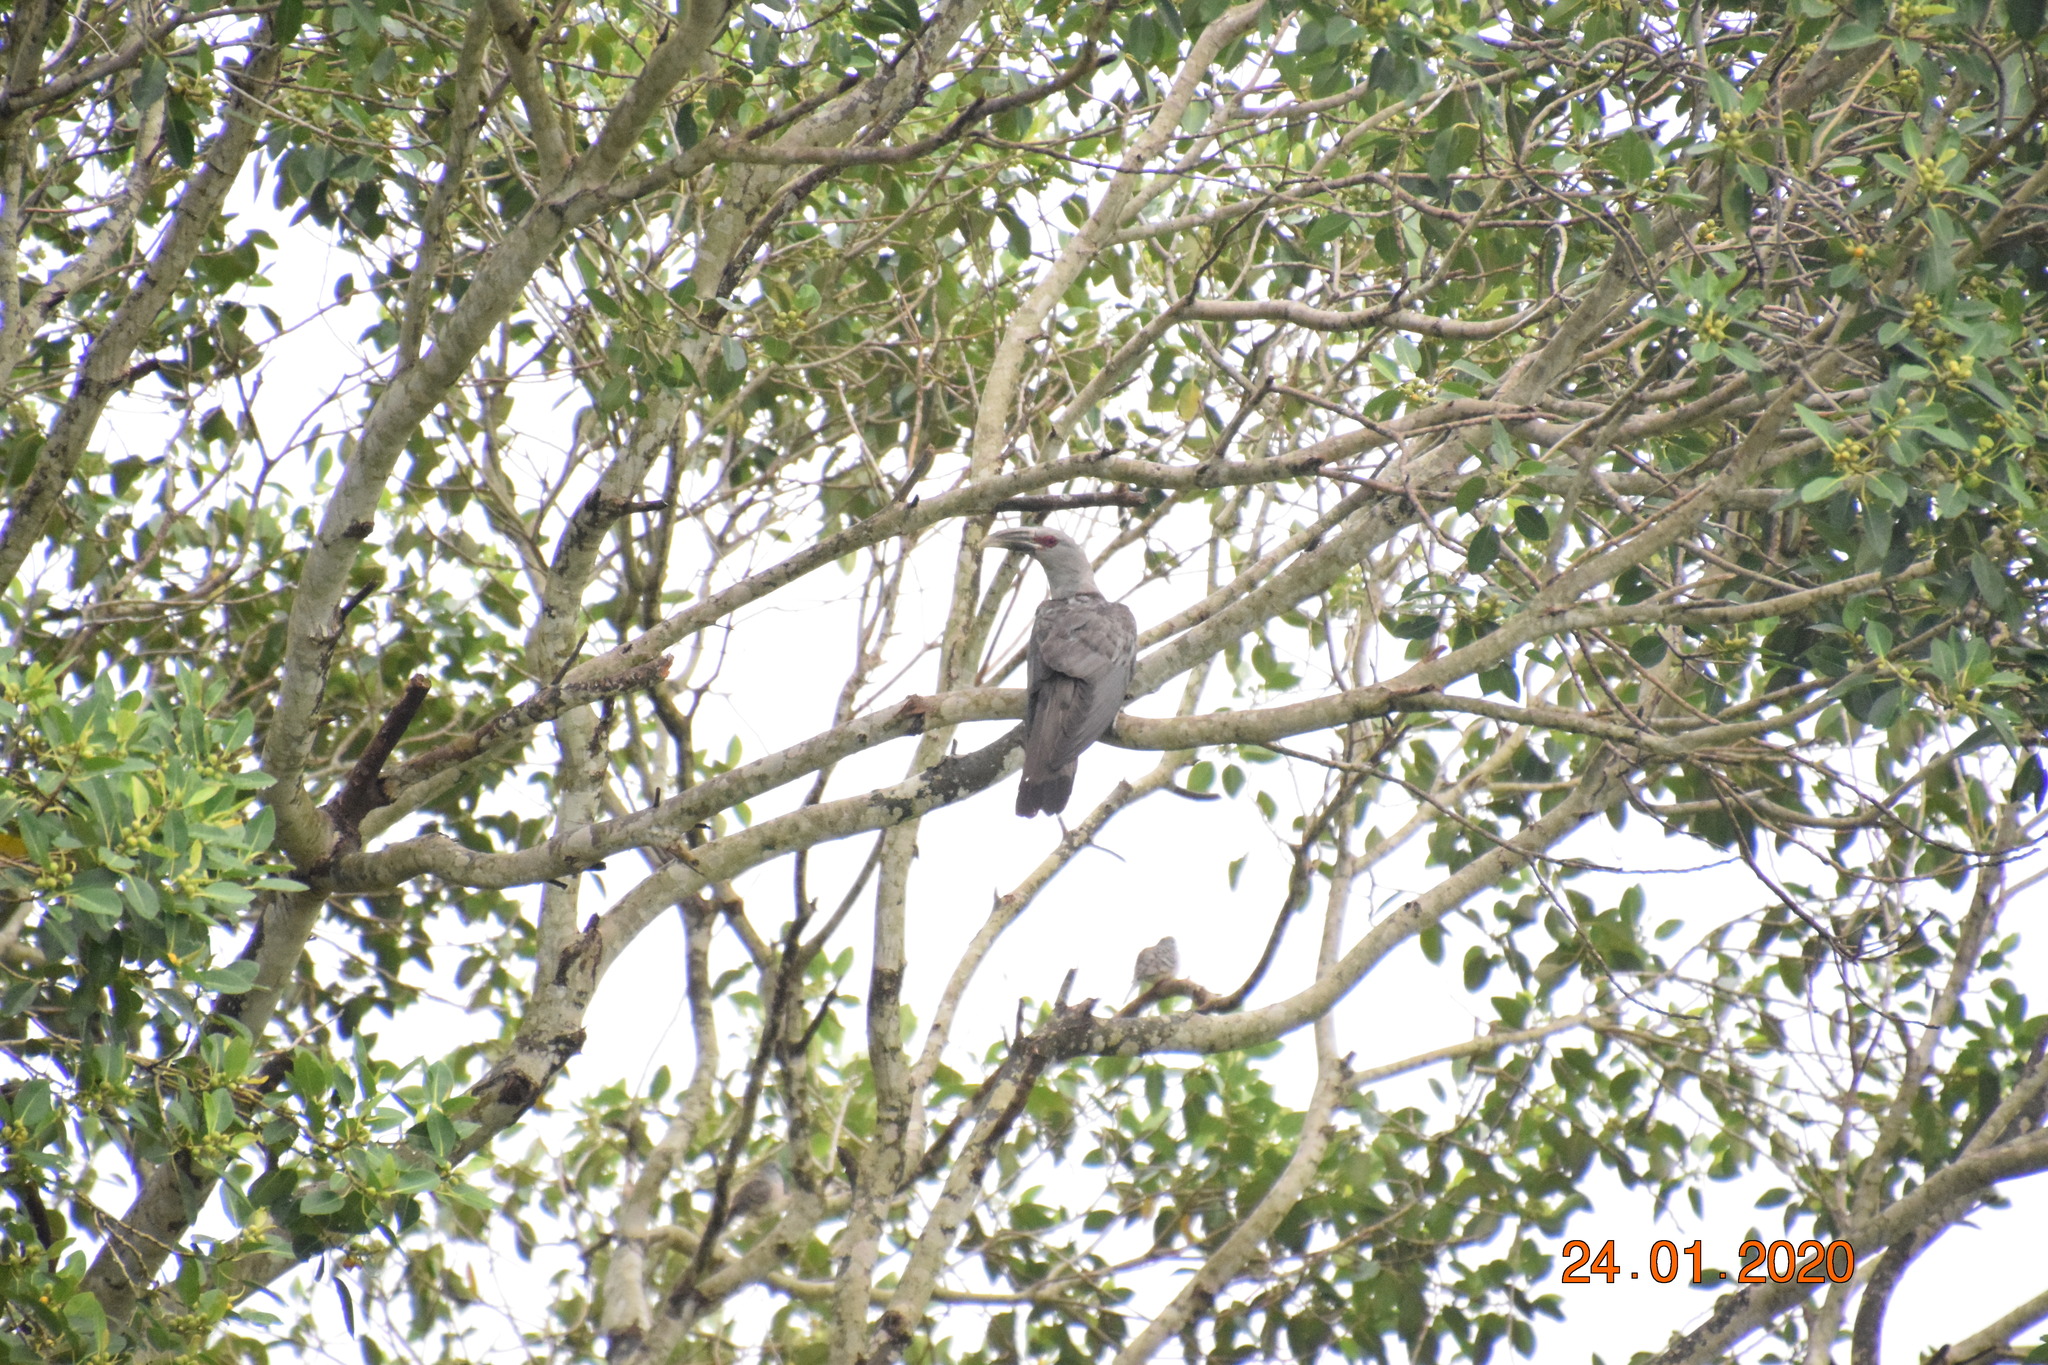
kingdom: Animalia
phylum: Chordata
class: Aves
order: Cuculiformes
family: Cuculidae
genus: Scythrops
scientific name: Scythrops novaehollandiae
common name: Channel-billed cuckoo
